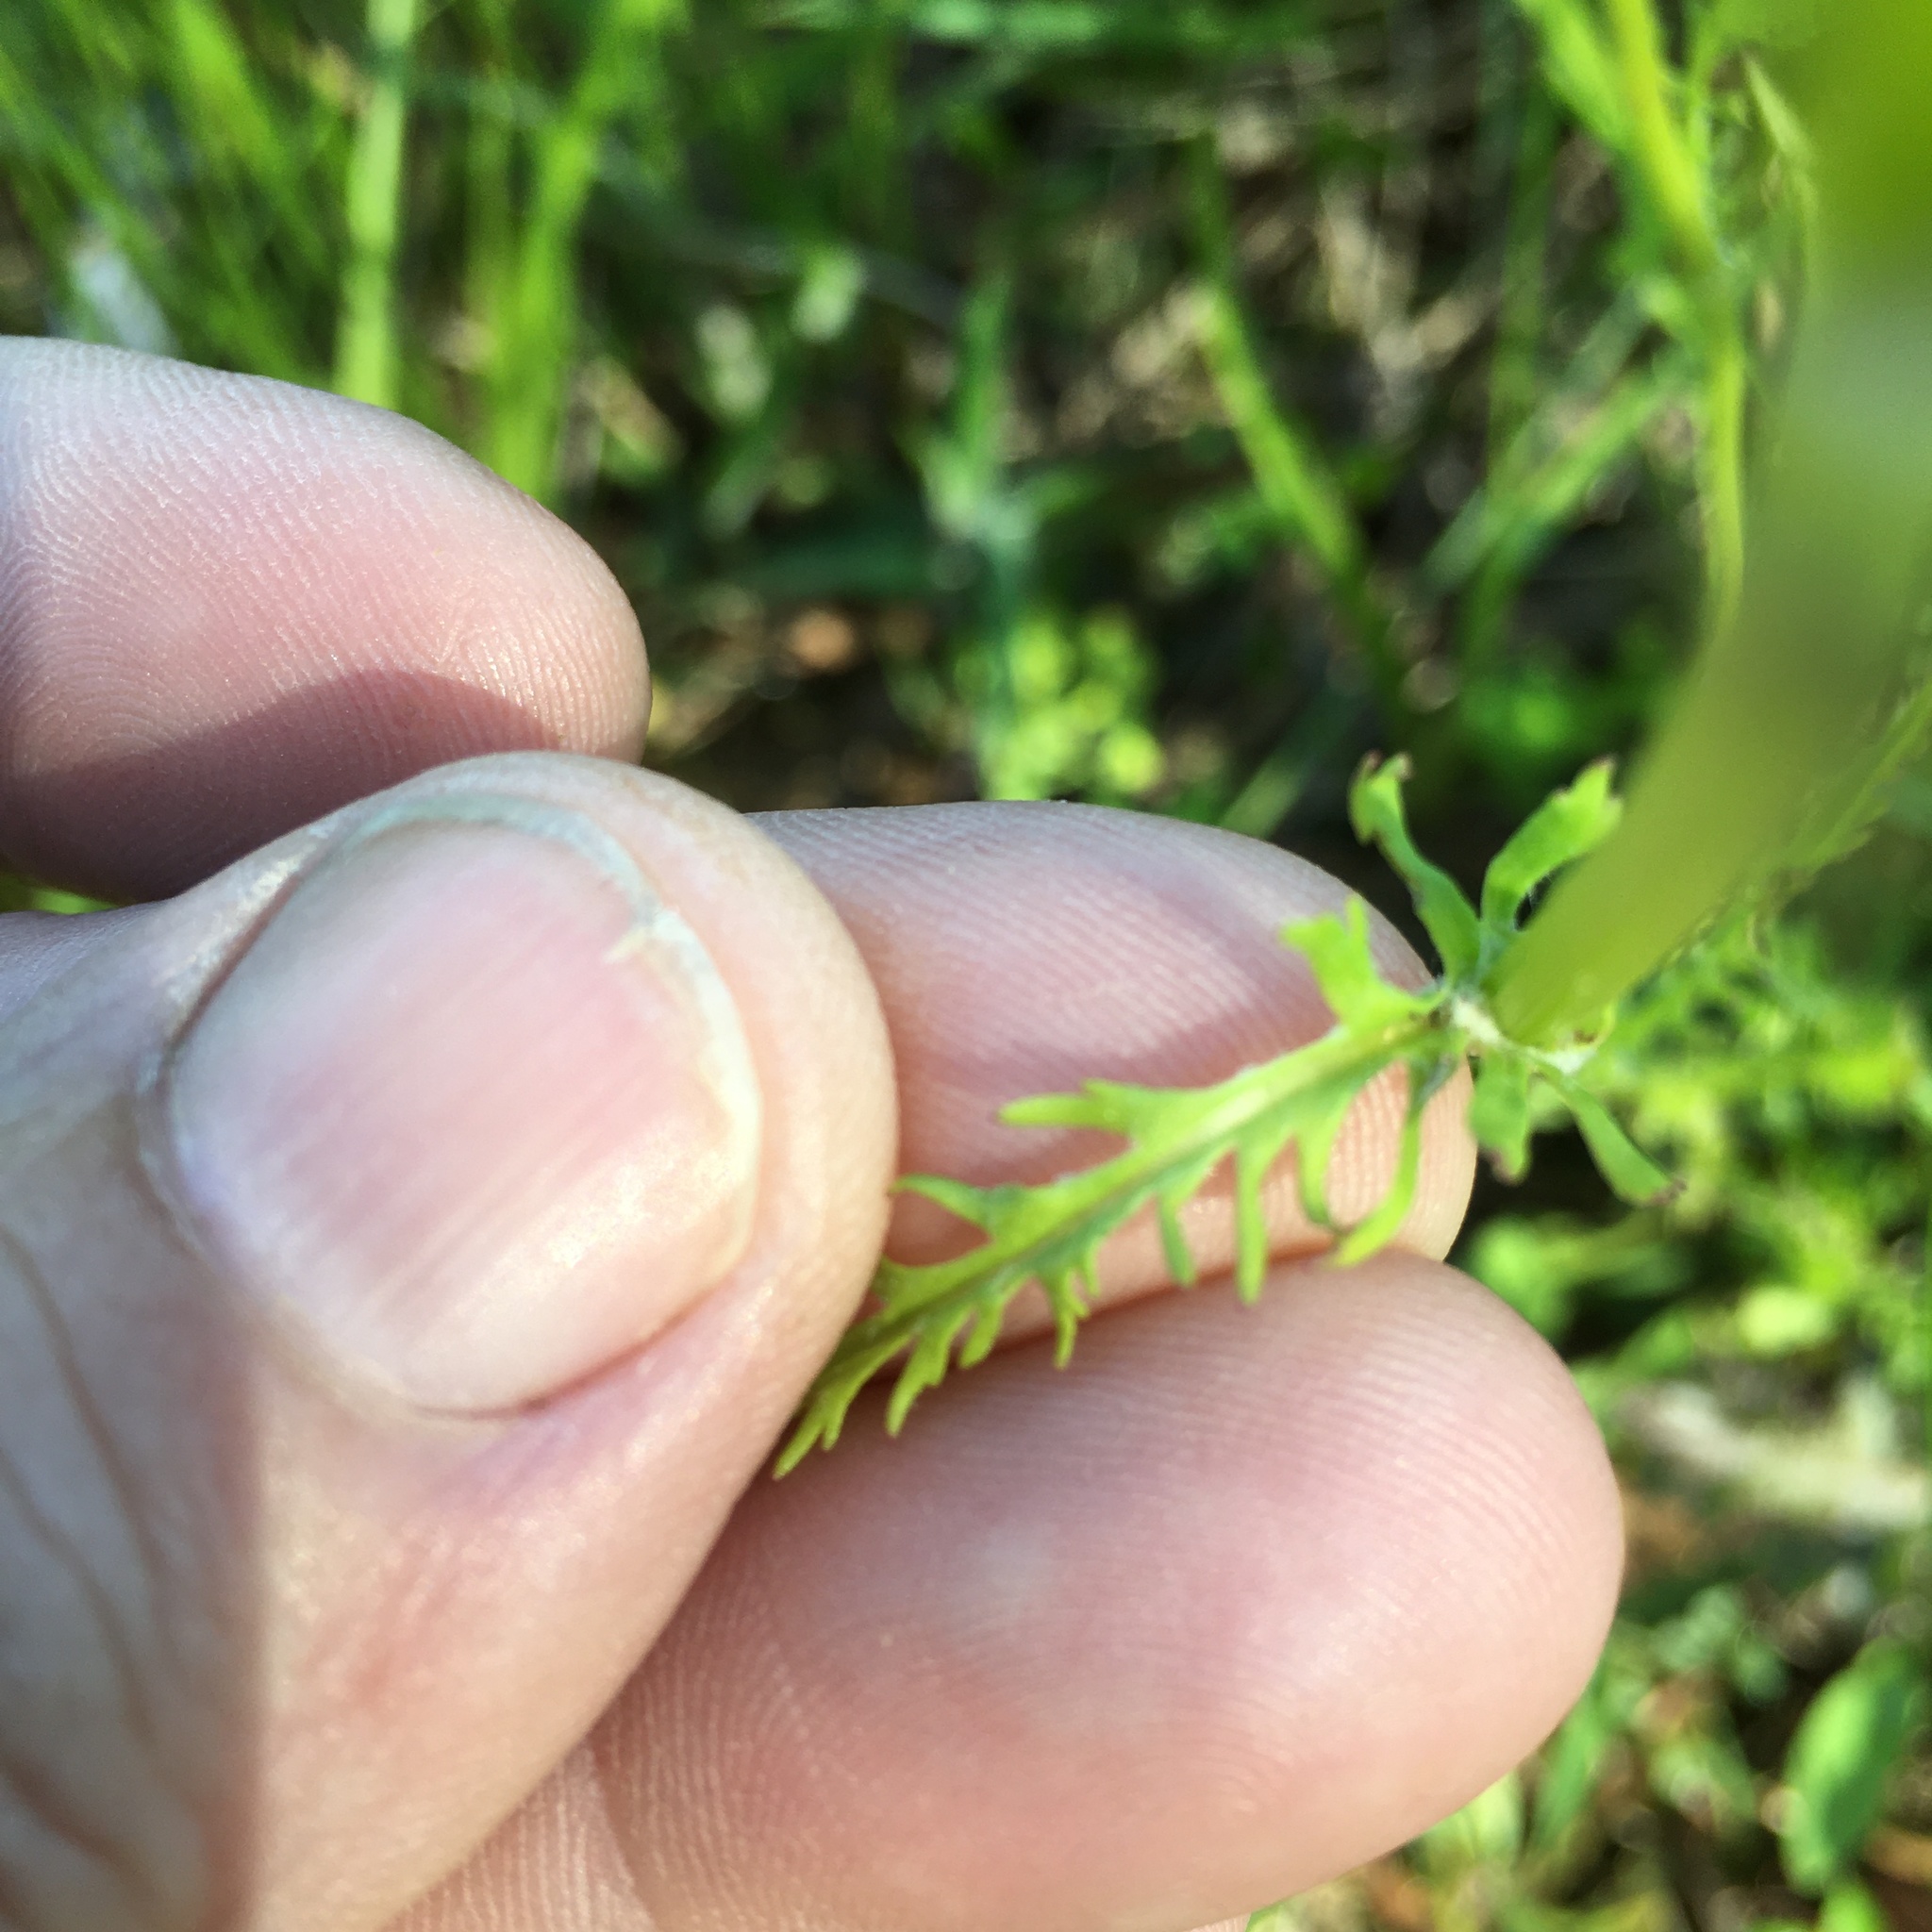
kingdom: Plantae
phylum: Tracheophyta
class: Magnoliopsida
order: Asterales
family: Asteraceae
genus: Packera
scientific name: Packera anonyma
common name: Small ragwort
